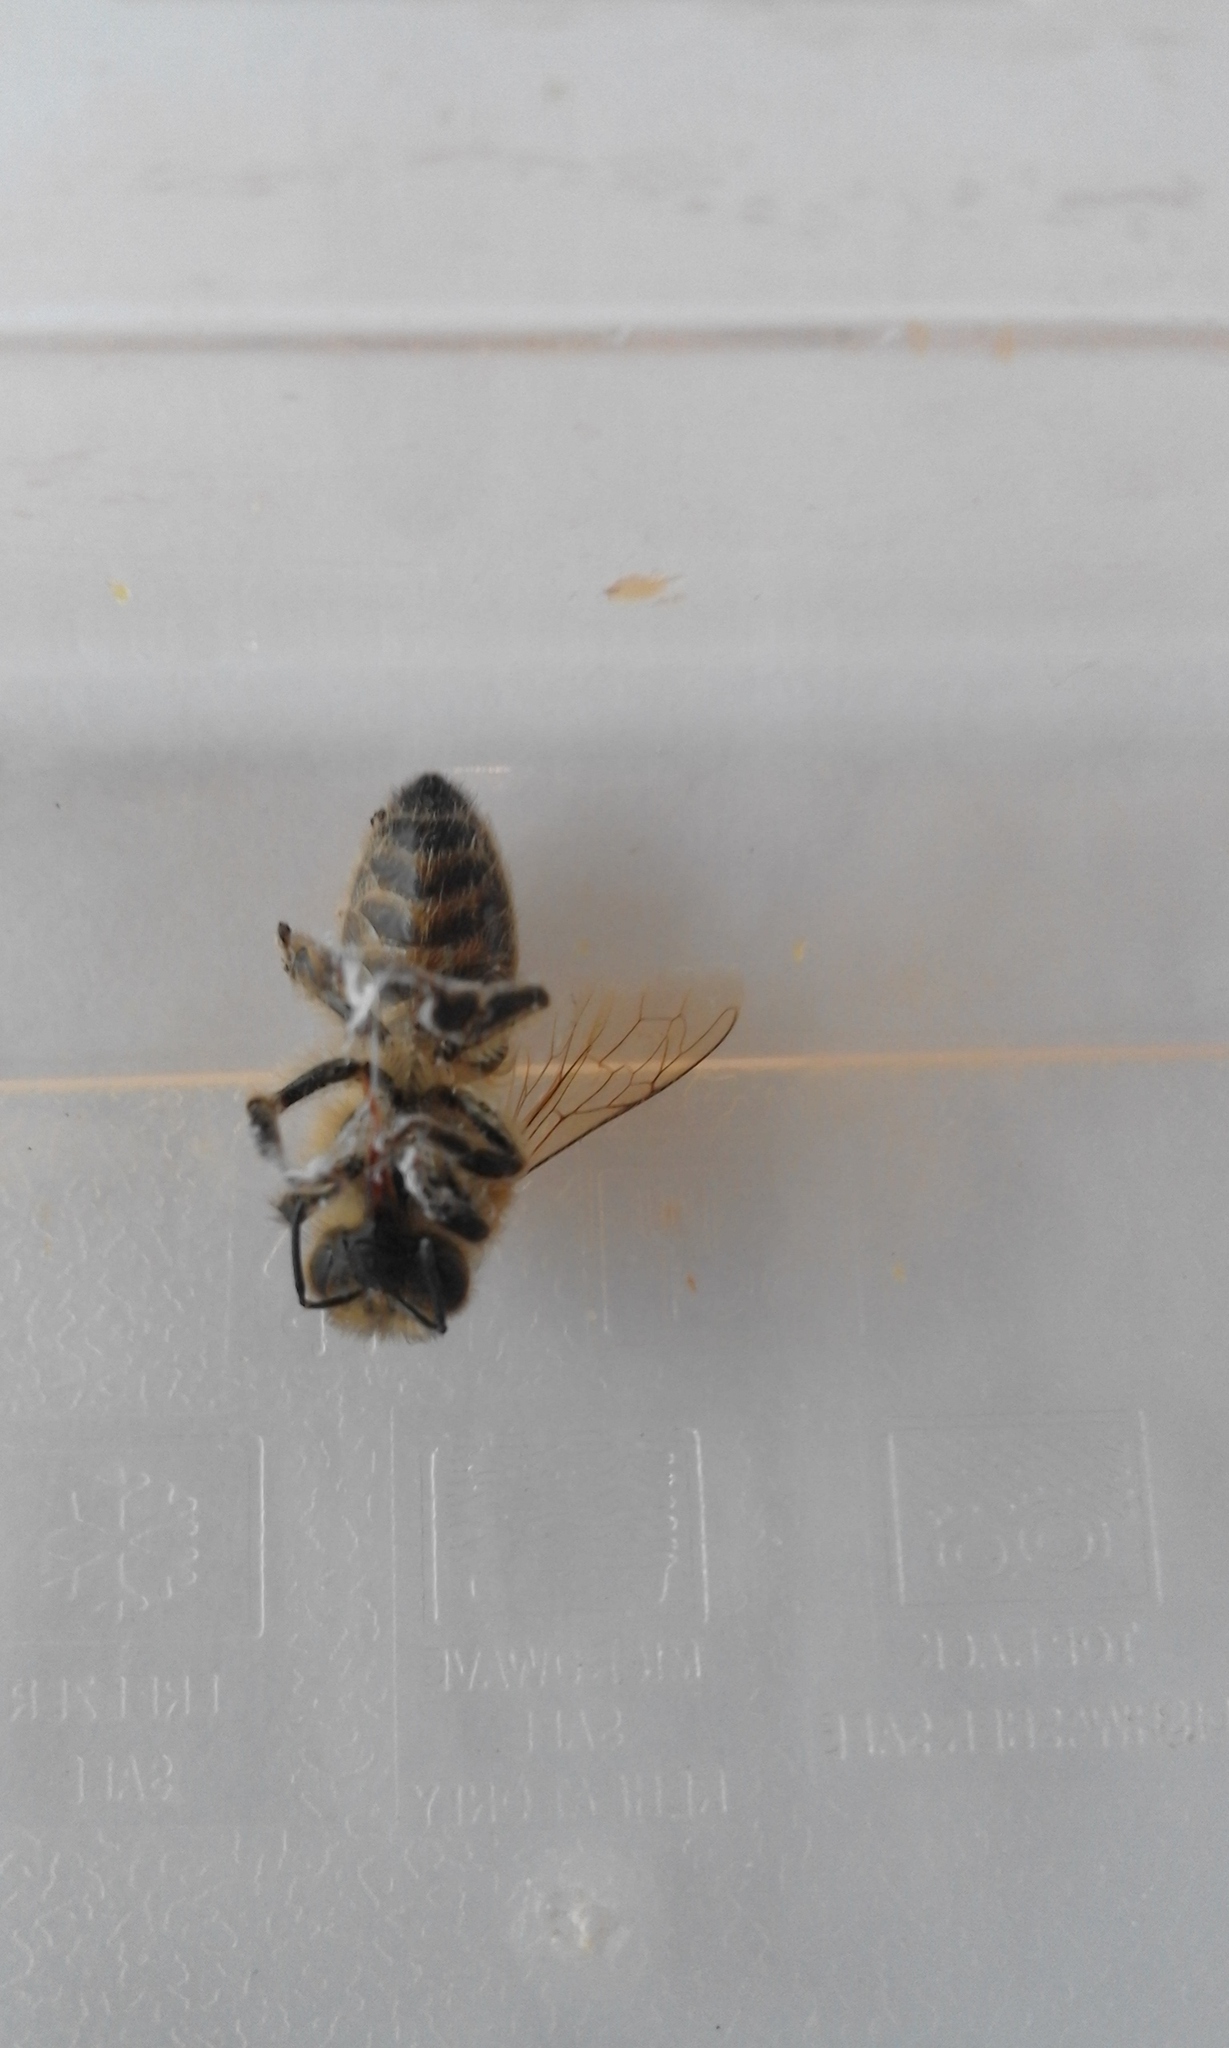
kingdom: Animalia
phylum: Arthropoda
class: Insecta
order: Hymenoptera
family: Apidae
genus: Apis
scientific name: Apis mellifera
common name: Honey bee
